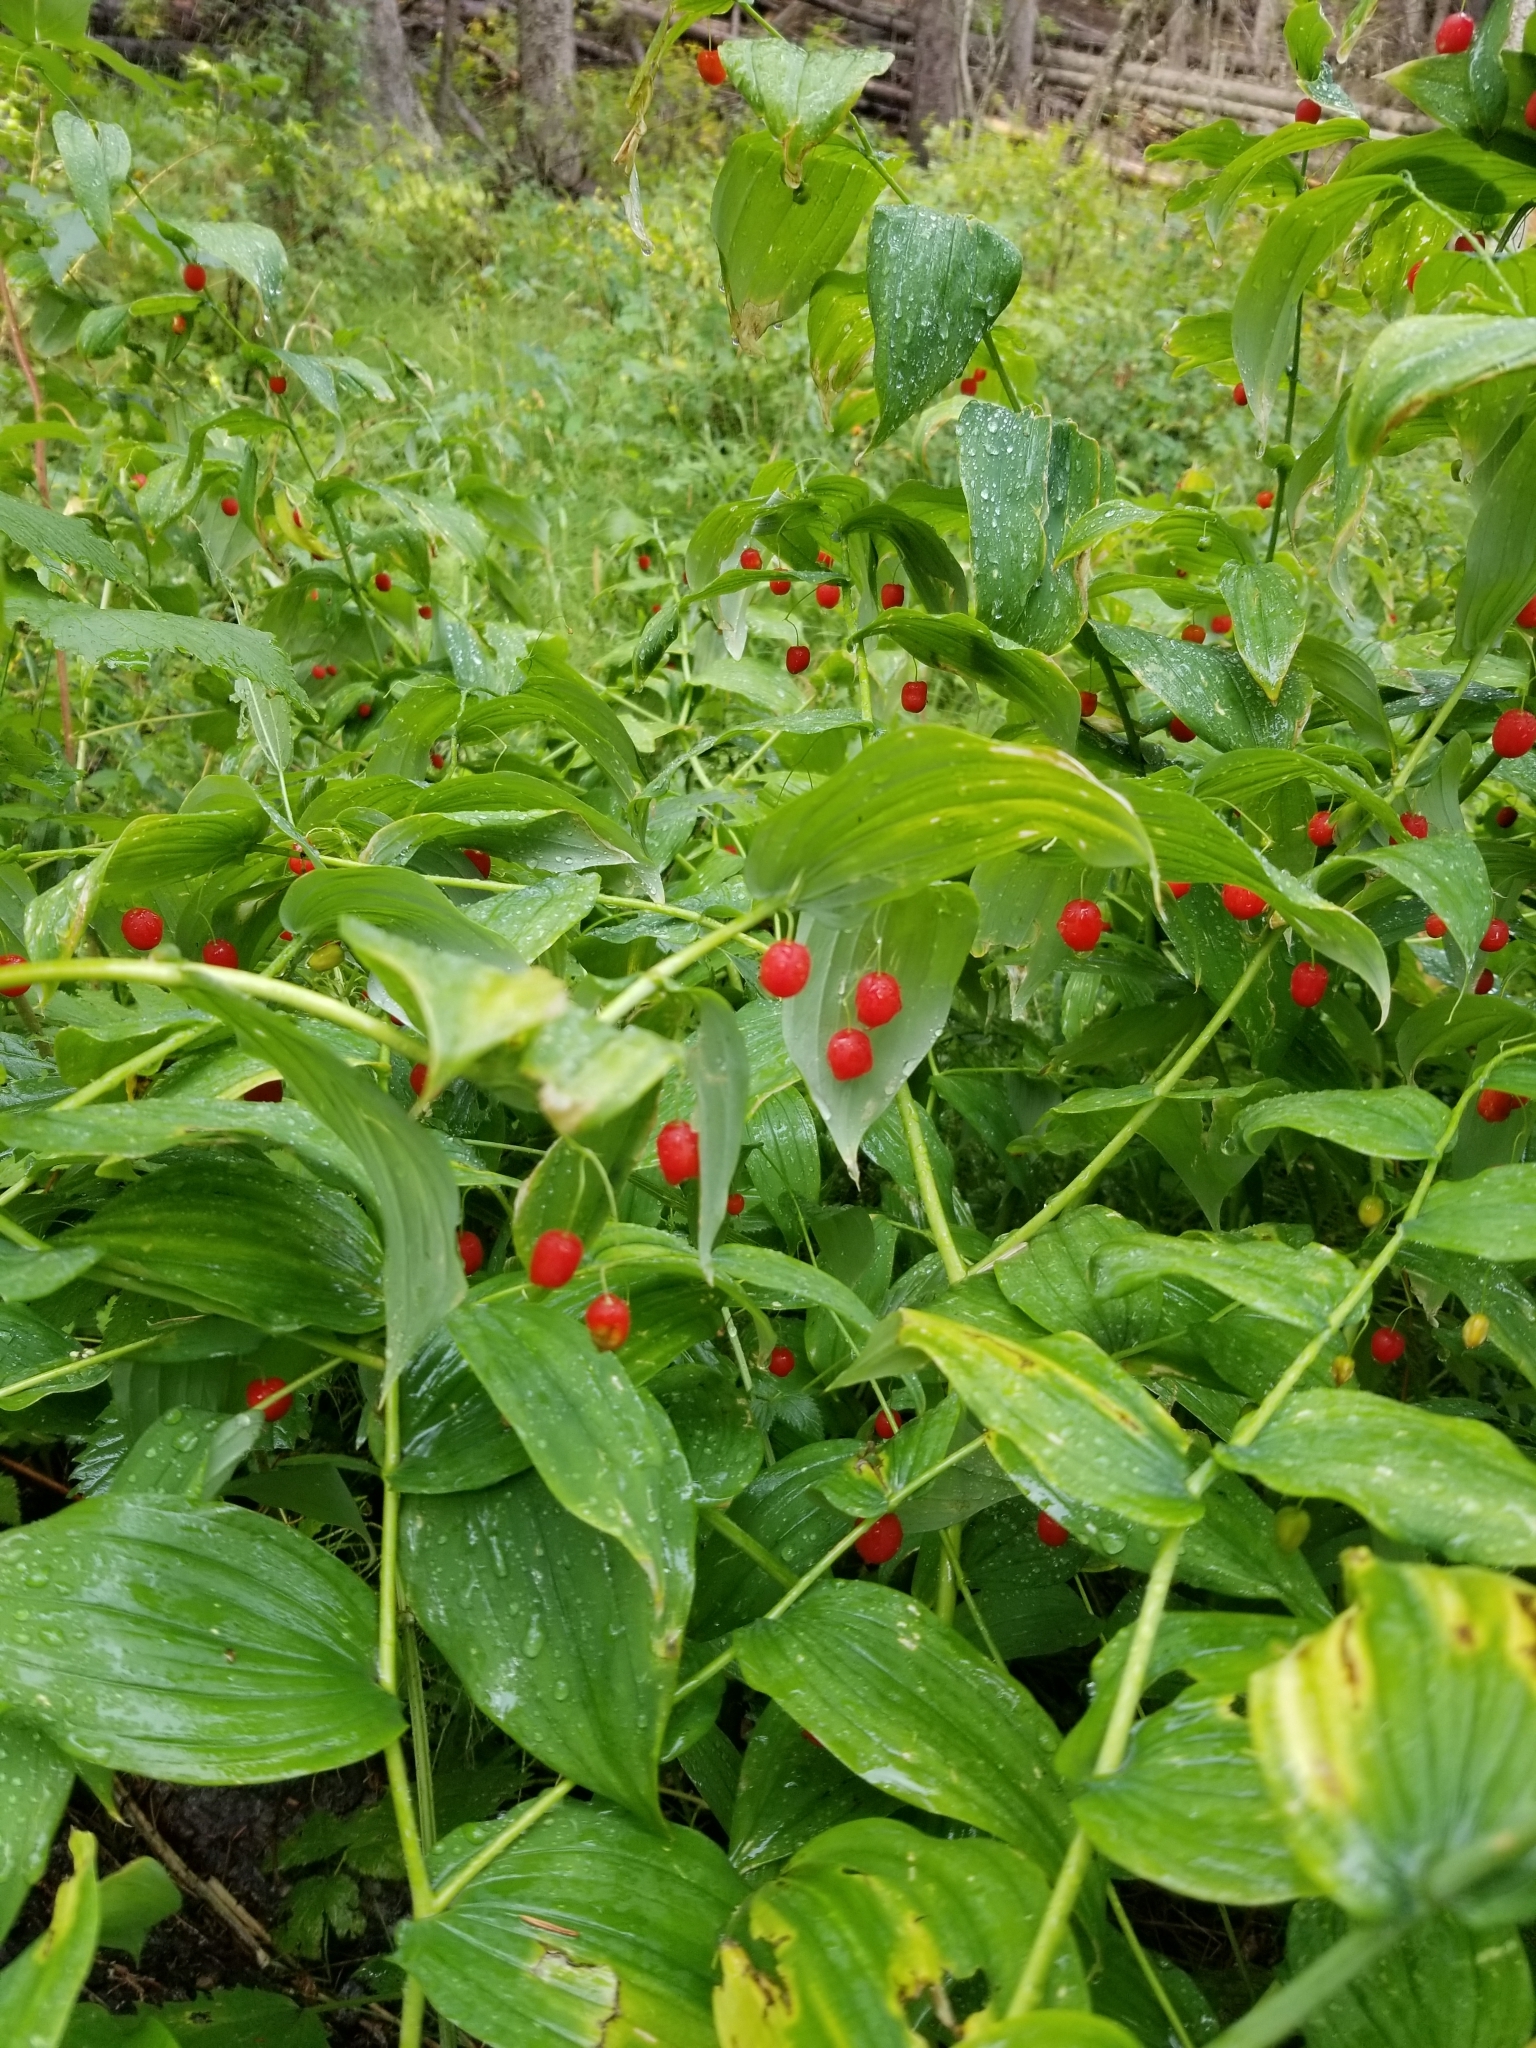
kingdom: Plantae
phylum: Tracheophyta
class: Liliopsida
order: Liliales
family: Liliaceae
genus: Streptopus
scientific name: Streptopus amplexifolius
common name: Clasp twisted stalk
